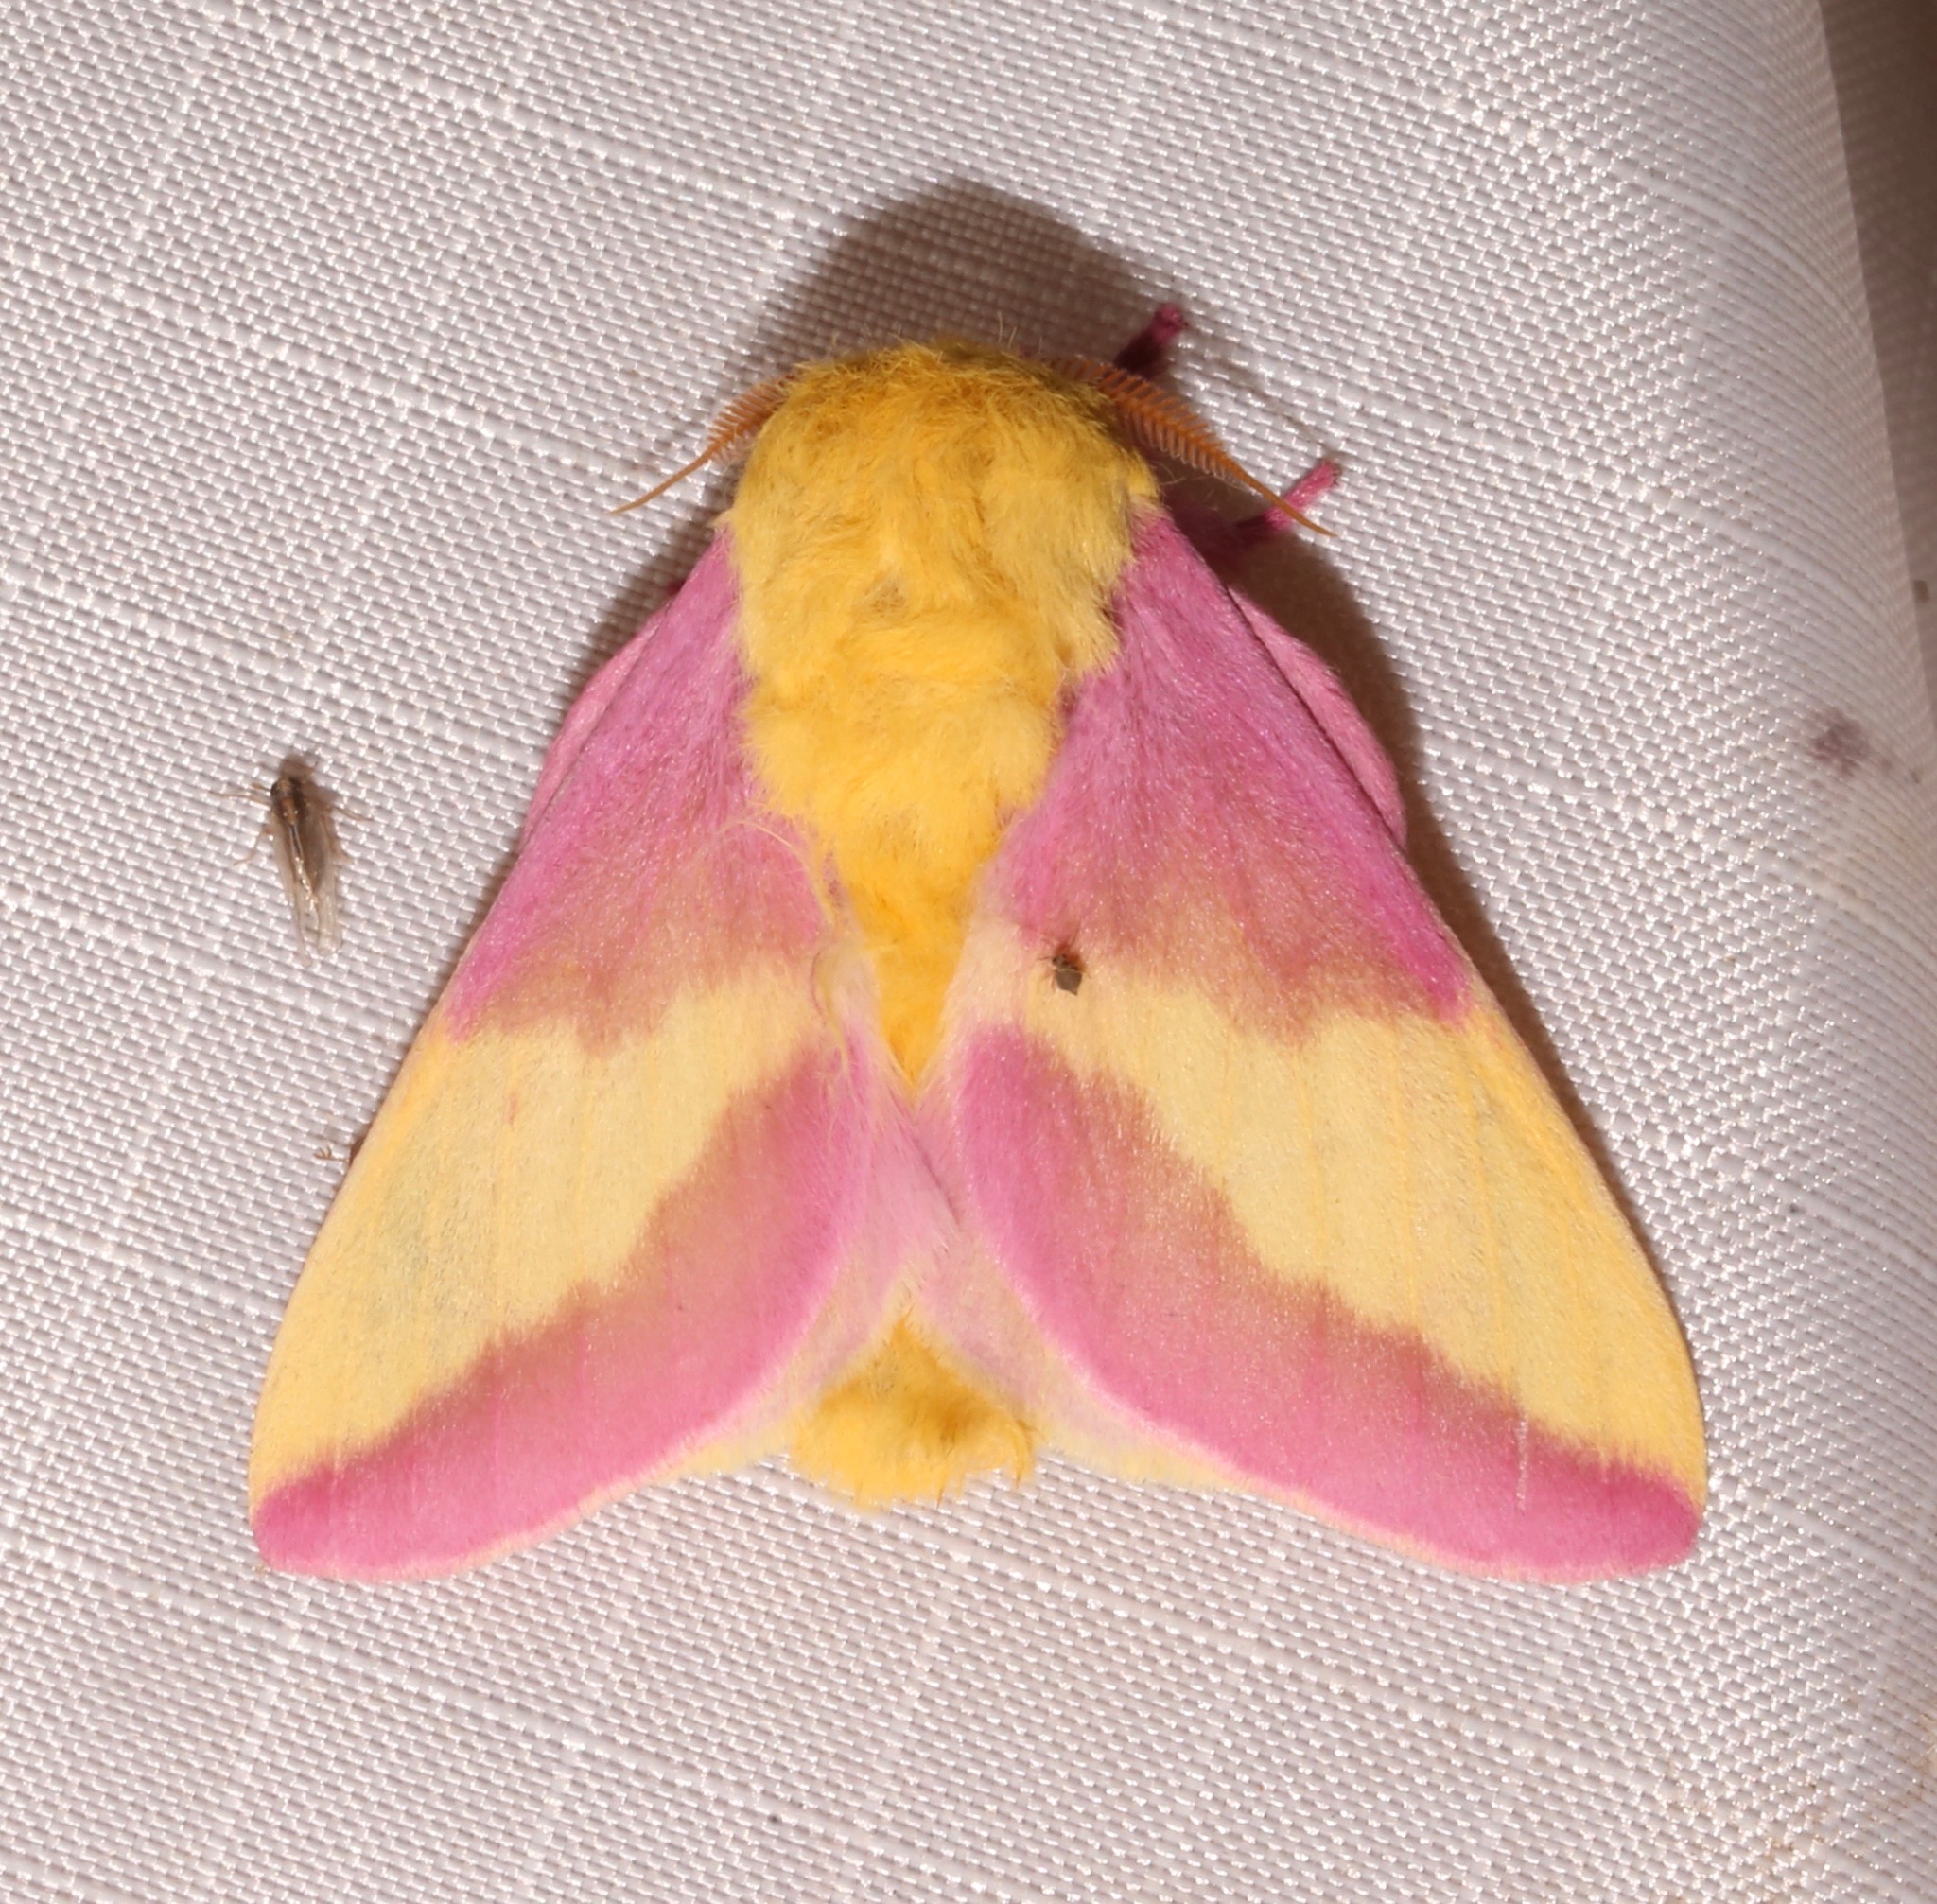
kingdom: Animalia
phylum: Arthropoda
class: Insecta
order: Lepidoptera
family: Saturniidae
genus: Dryocampa
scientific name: Dryocampa rubicunda
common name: Rosy maple moth
